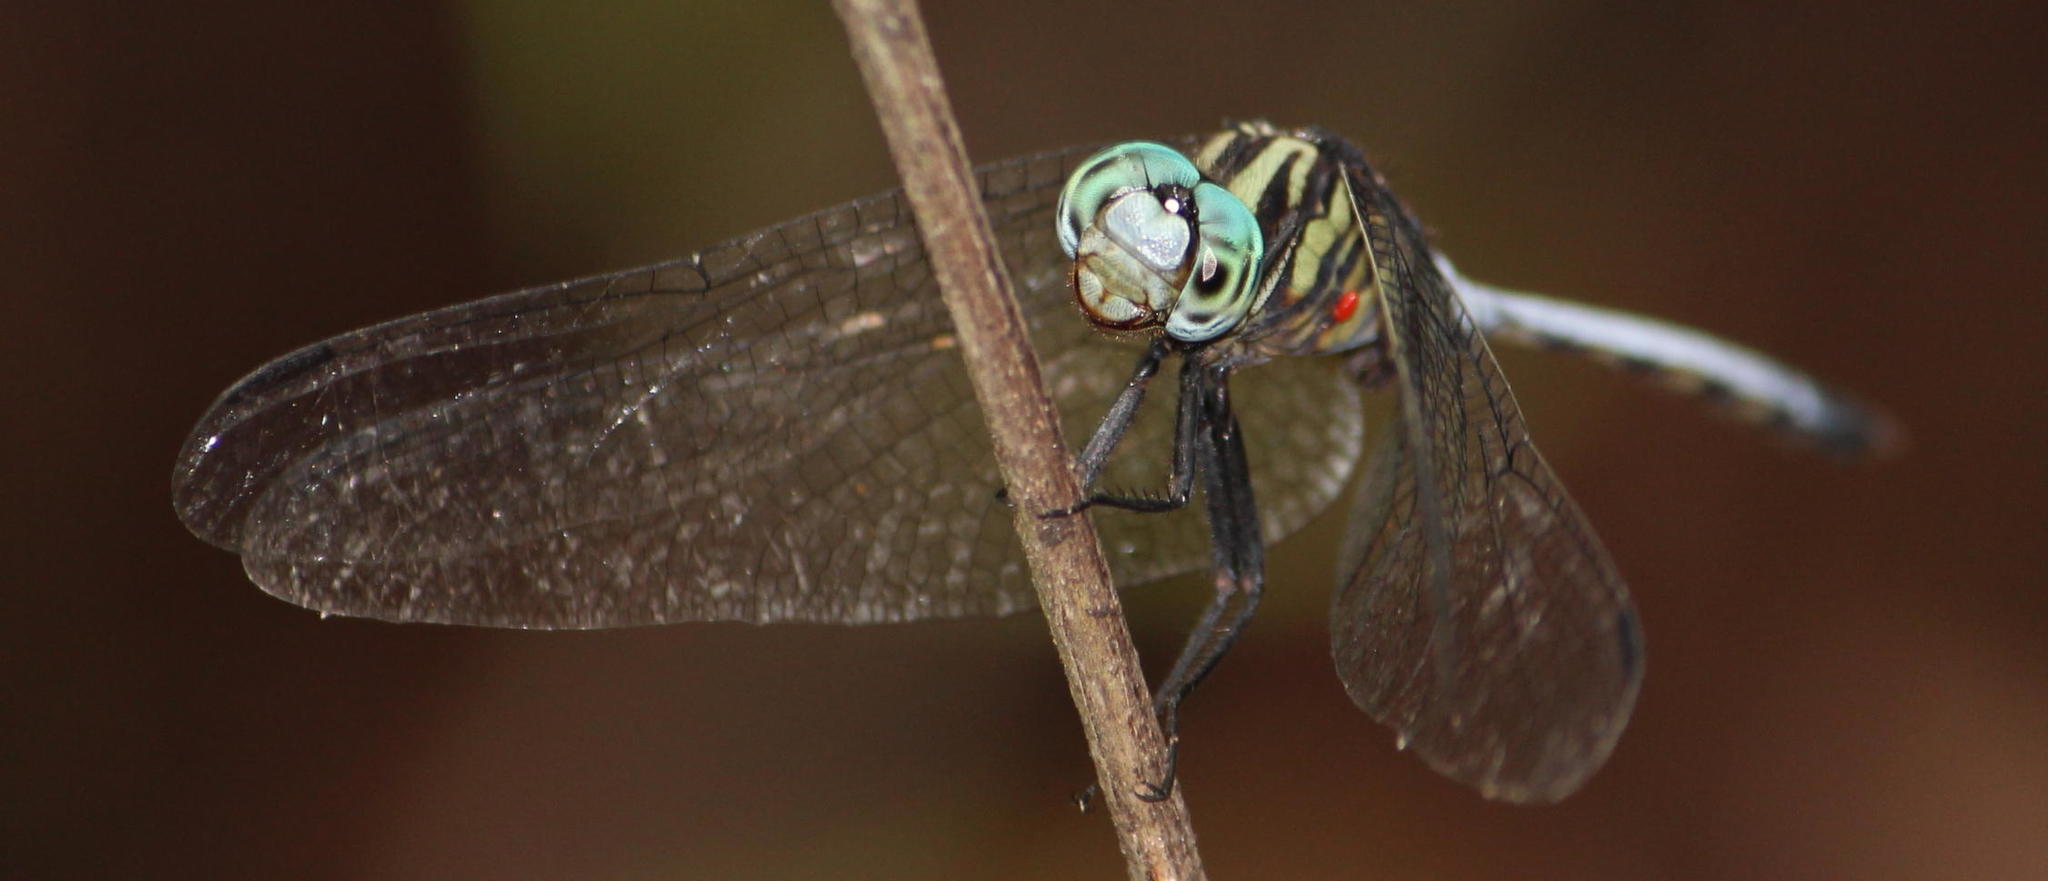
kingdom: Animalia
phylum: Arthropoda
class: Insecta
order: Odonata
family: Libellulidae
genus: Orthetrum
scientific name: Orthetrum julia
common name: Julia skimmer
